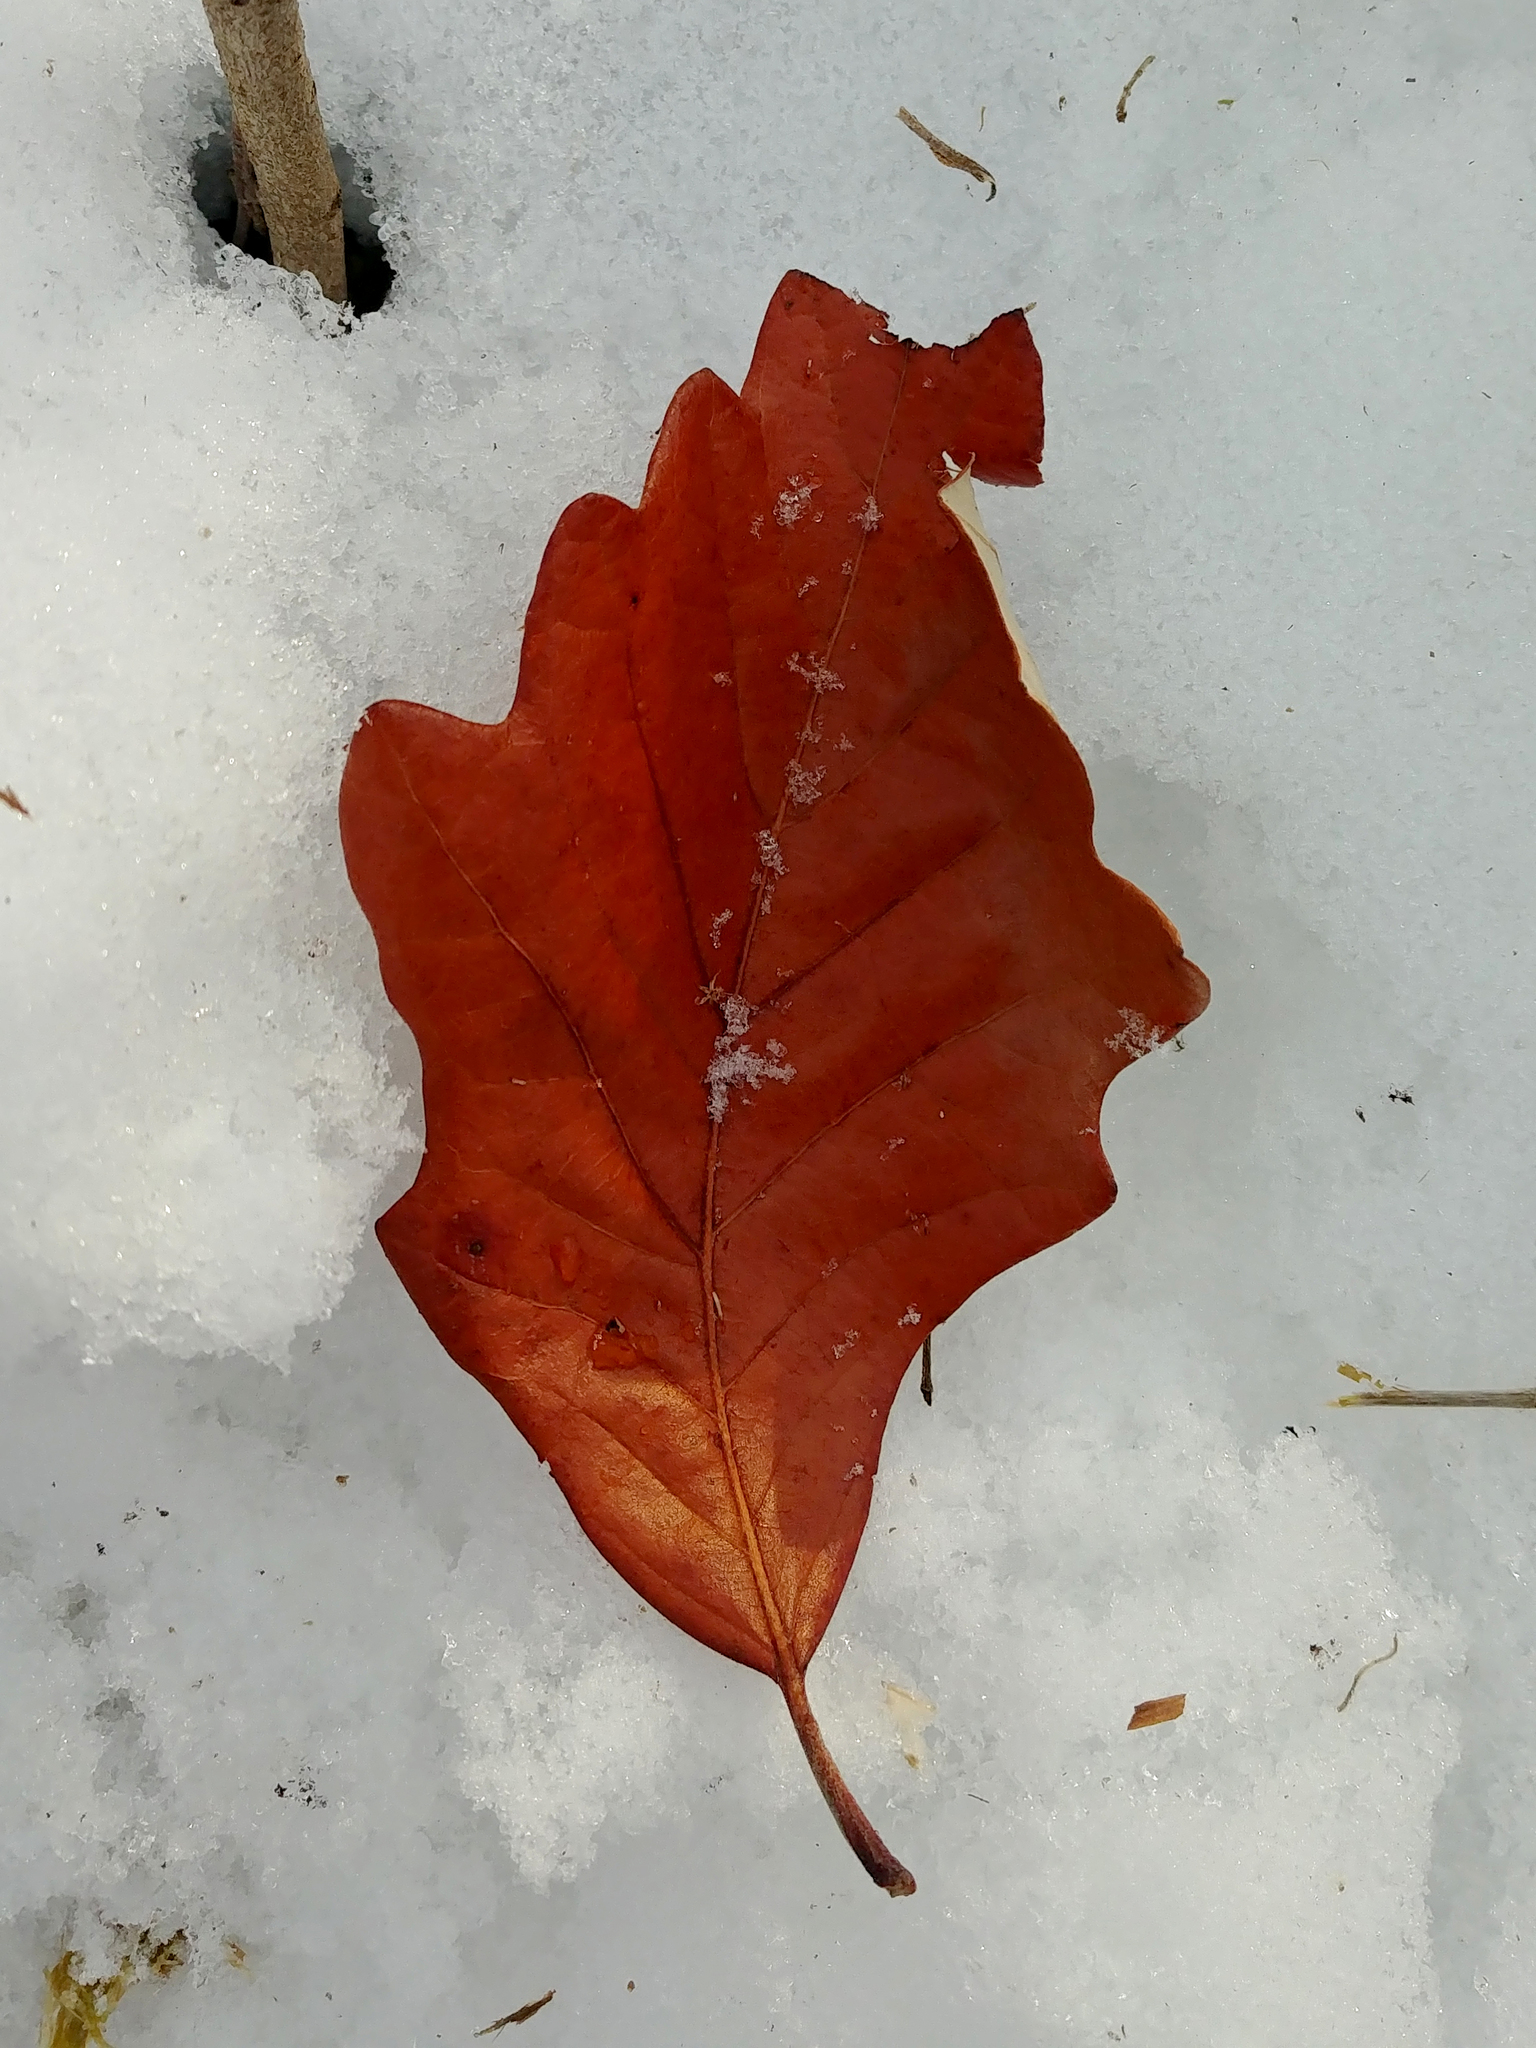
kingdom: Plantae
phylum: Tracheophyta
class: Magnoliopsida
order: Fagales
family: Fagaceae
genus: Quercus
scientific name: Quercus bicolor
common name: Swamp white oak
